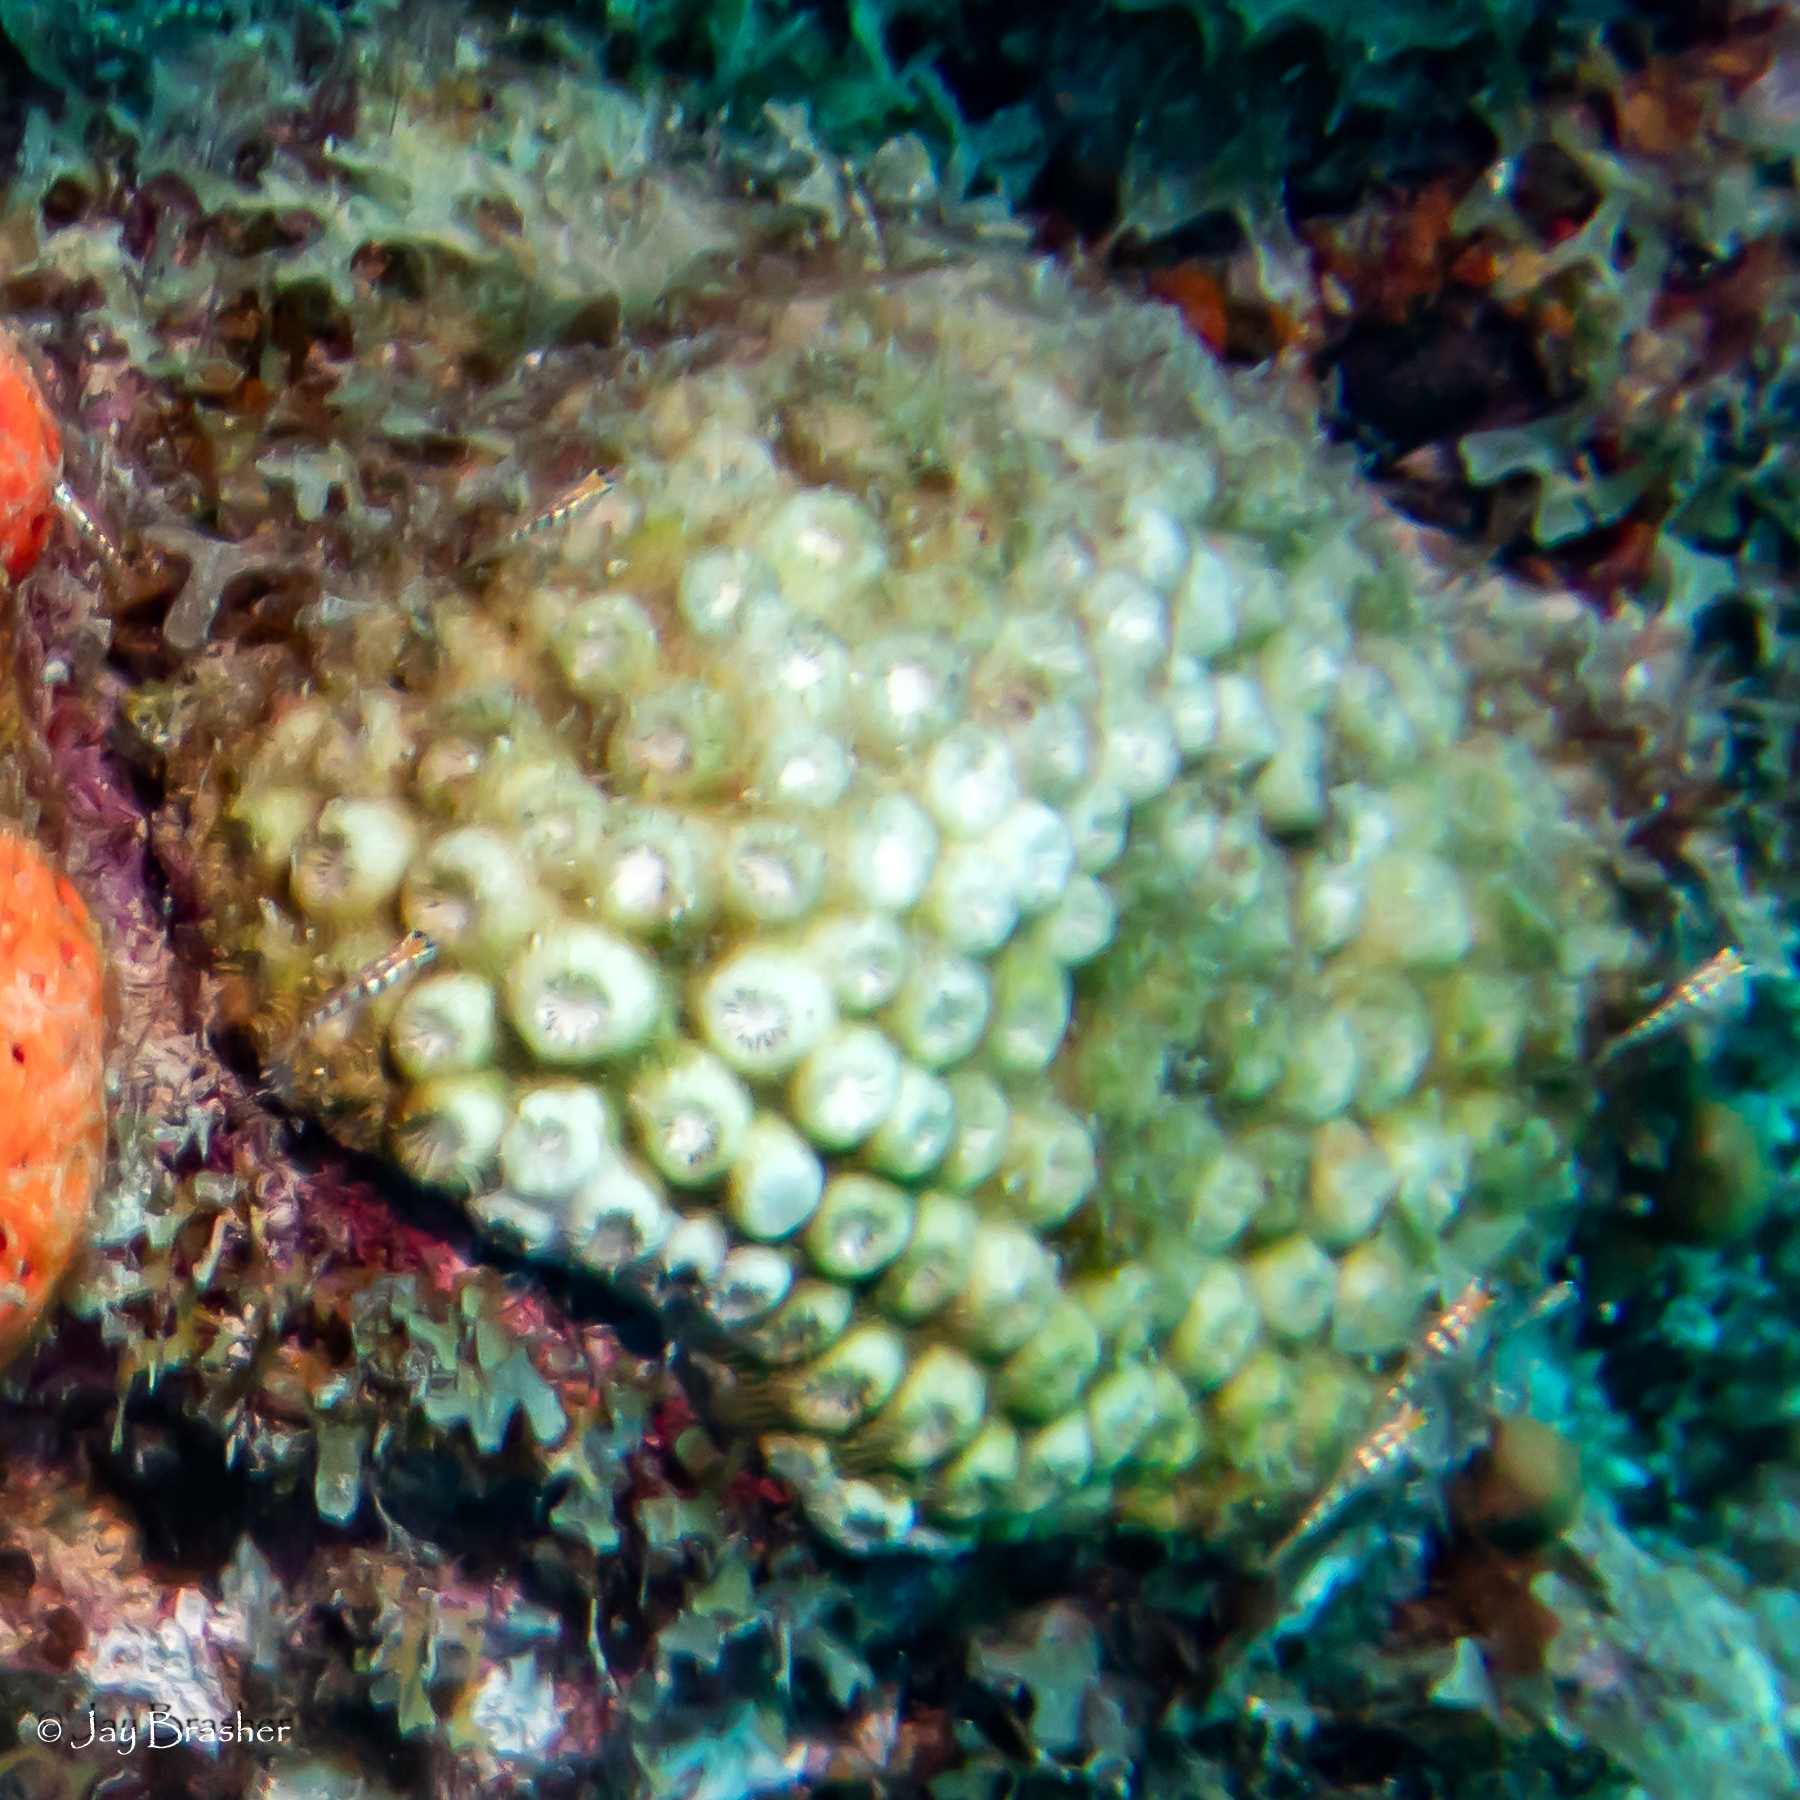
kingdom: Animalia
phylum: Cnidaria
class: Anthozoa
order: Scleractinia
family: Montastraeidae
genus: Montastraea
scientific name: Montastraea cavernosa
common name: Great star coral
